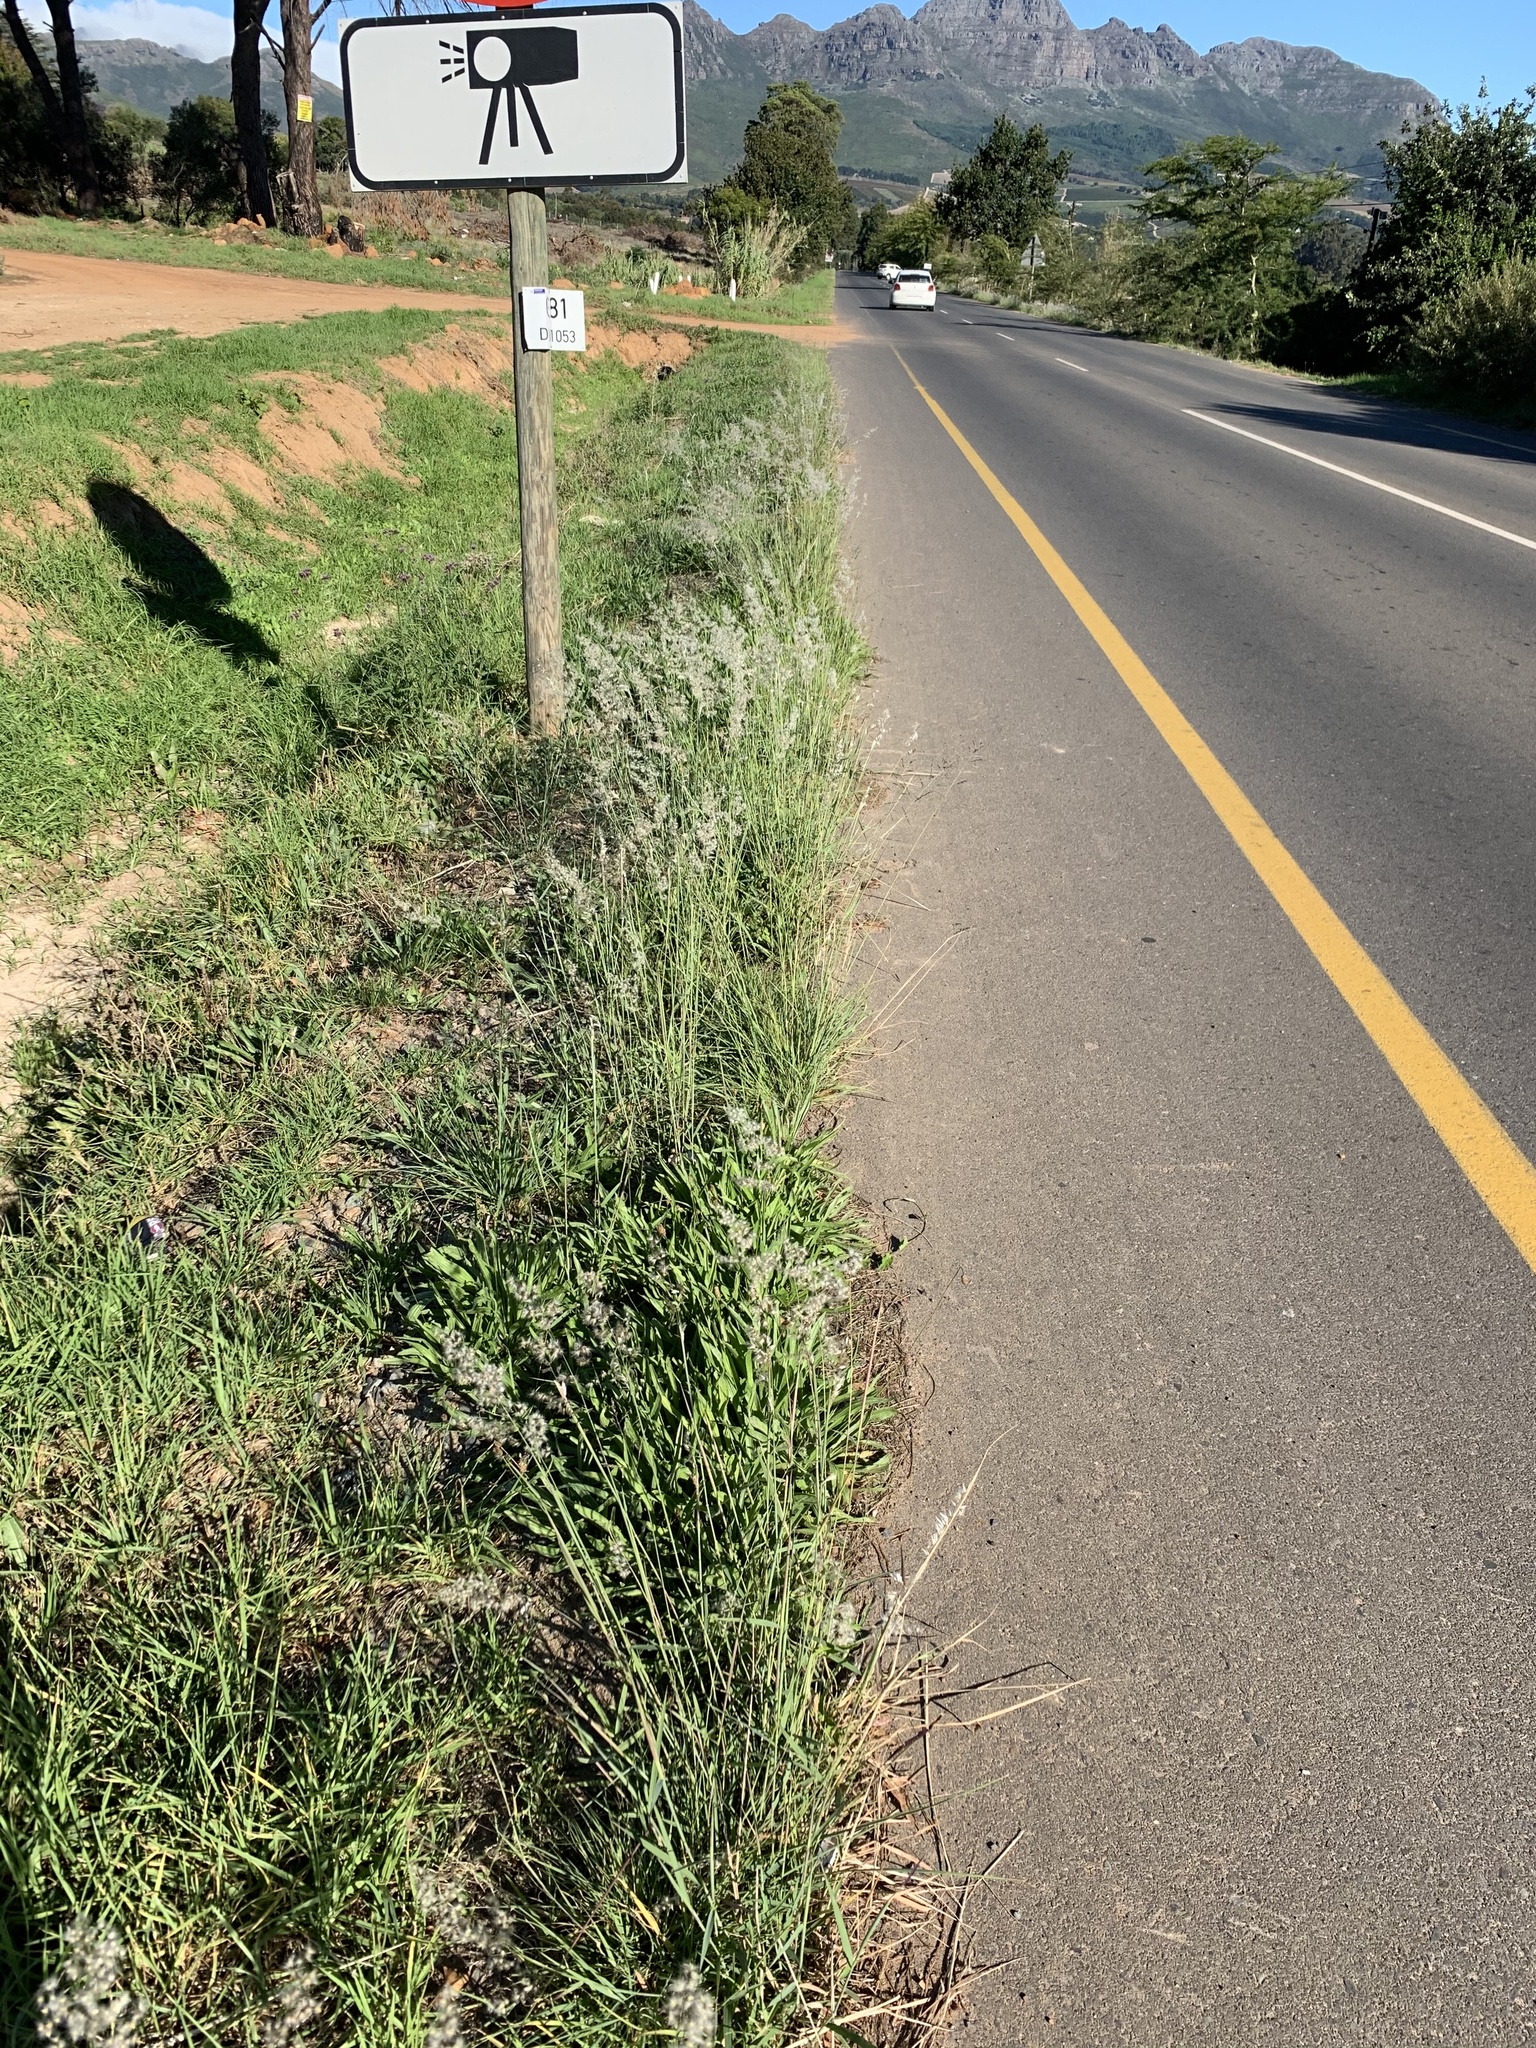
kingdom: Plantae
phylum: Tracheophyta
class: Liliopsida
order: Poales
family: Poaceae
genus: Melinis
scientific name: Melinis repens
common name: Rose natal grass
